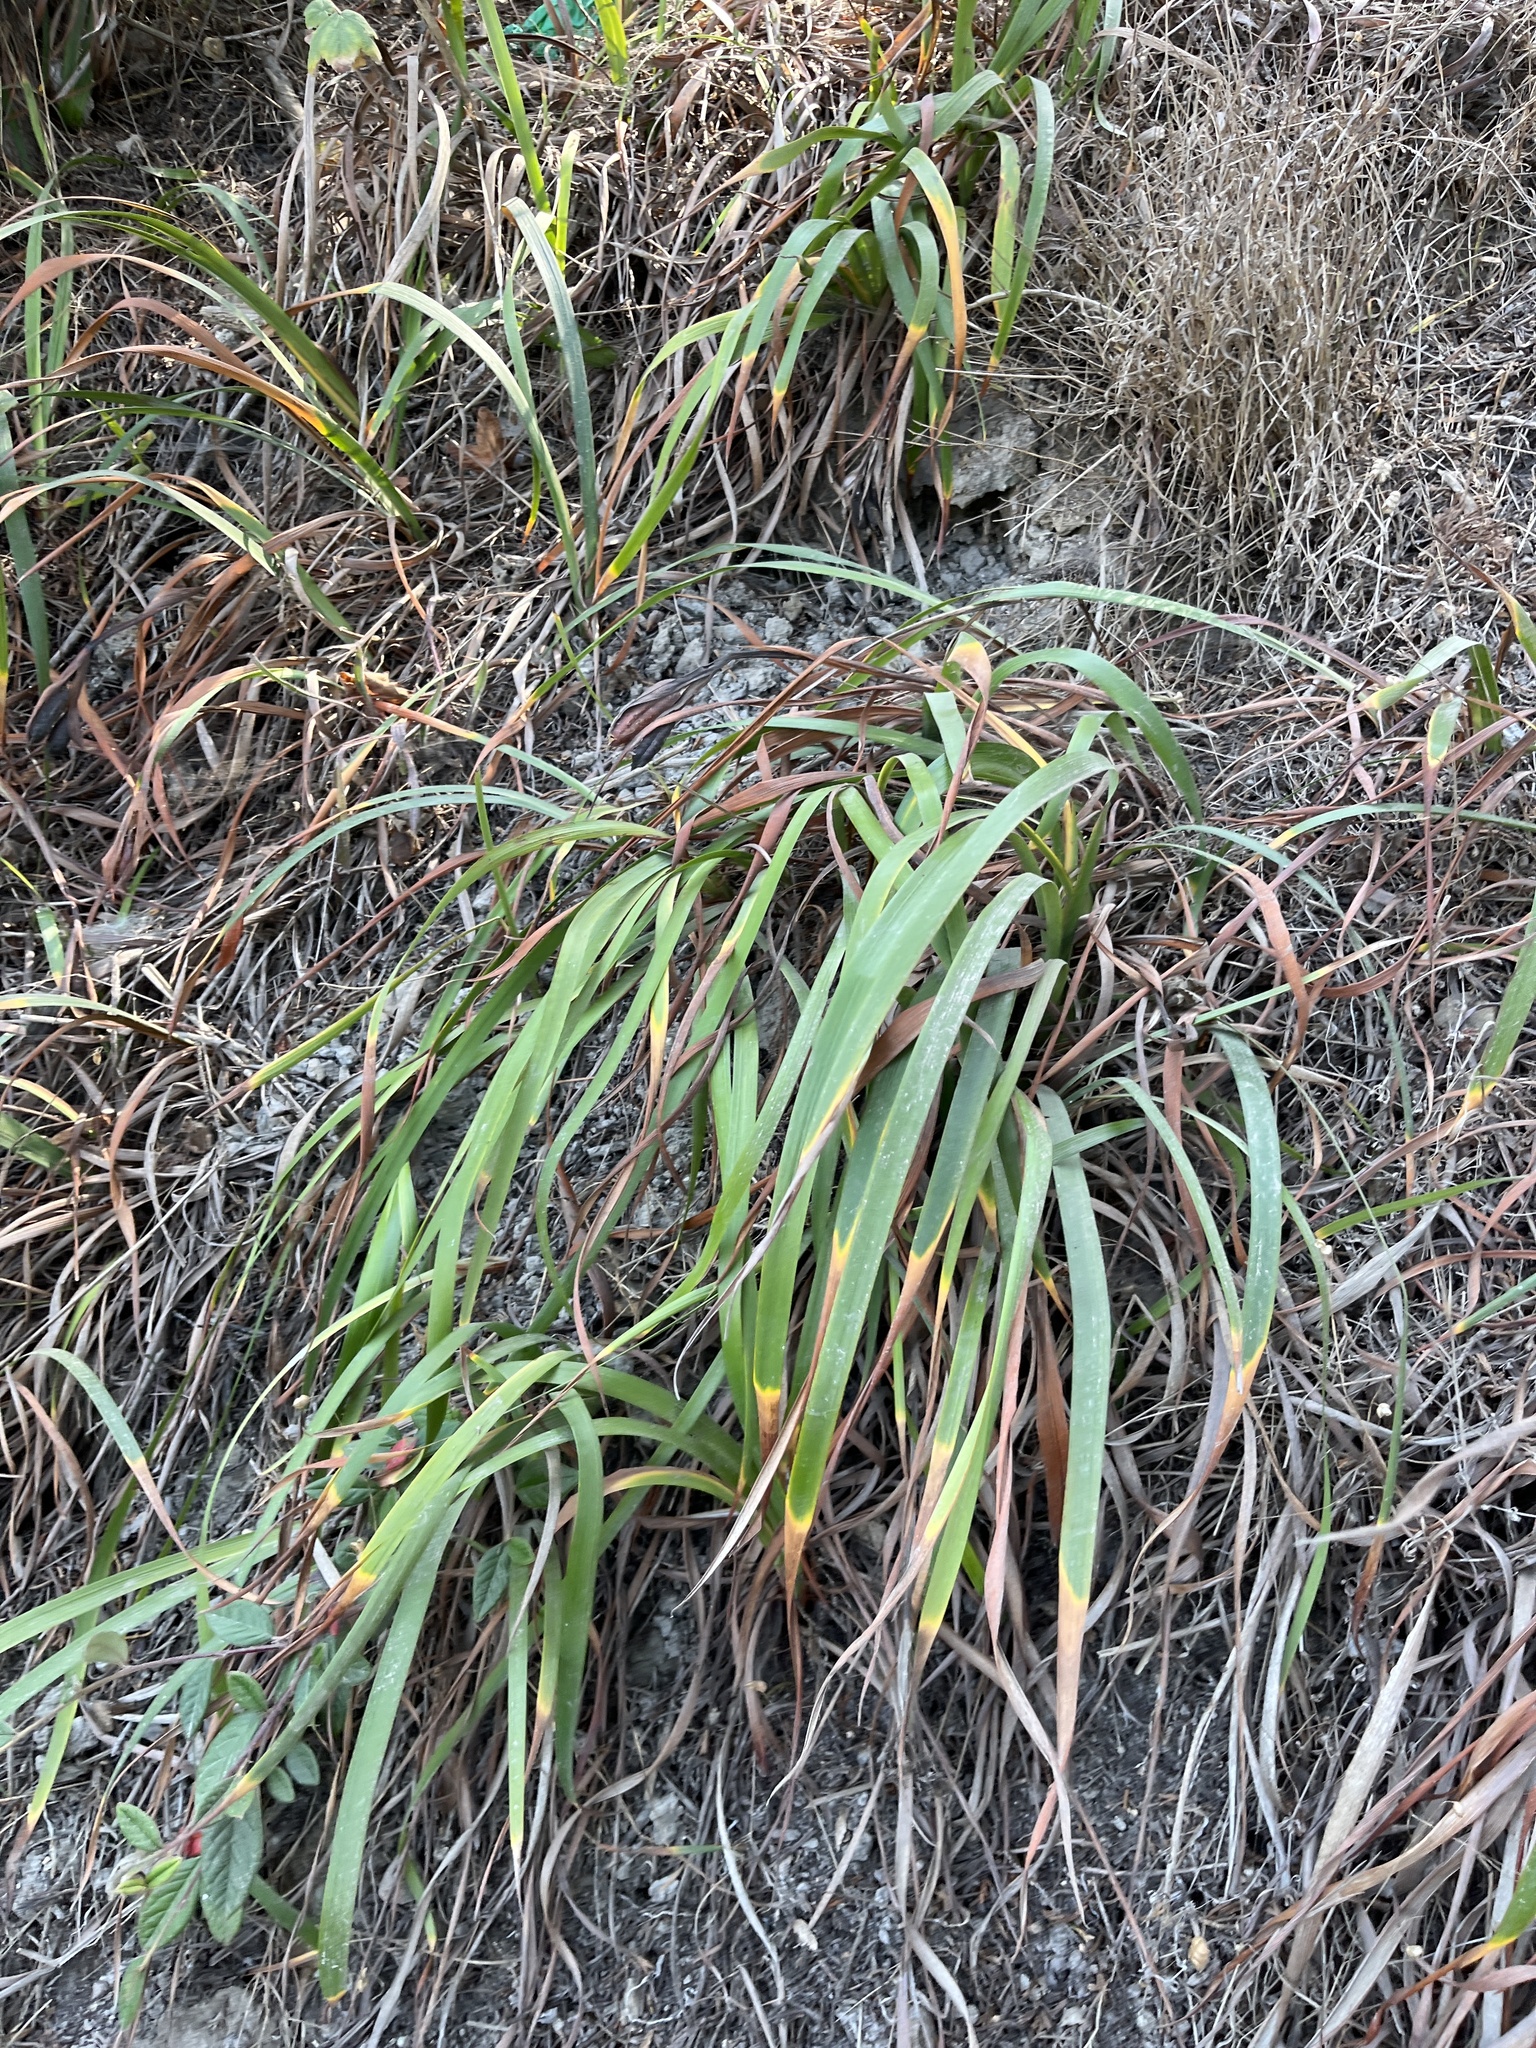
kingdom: Plantae
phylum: Tracheophyta
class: Liliopsida
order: Asparagales
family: Iridaceae
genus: Iris
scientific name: Iris douglasiana
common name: Marin iris
